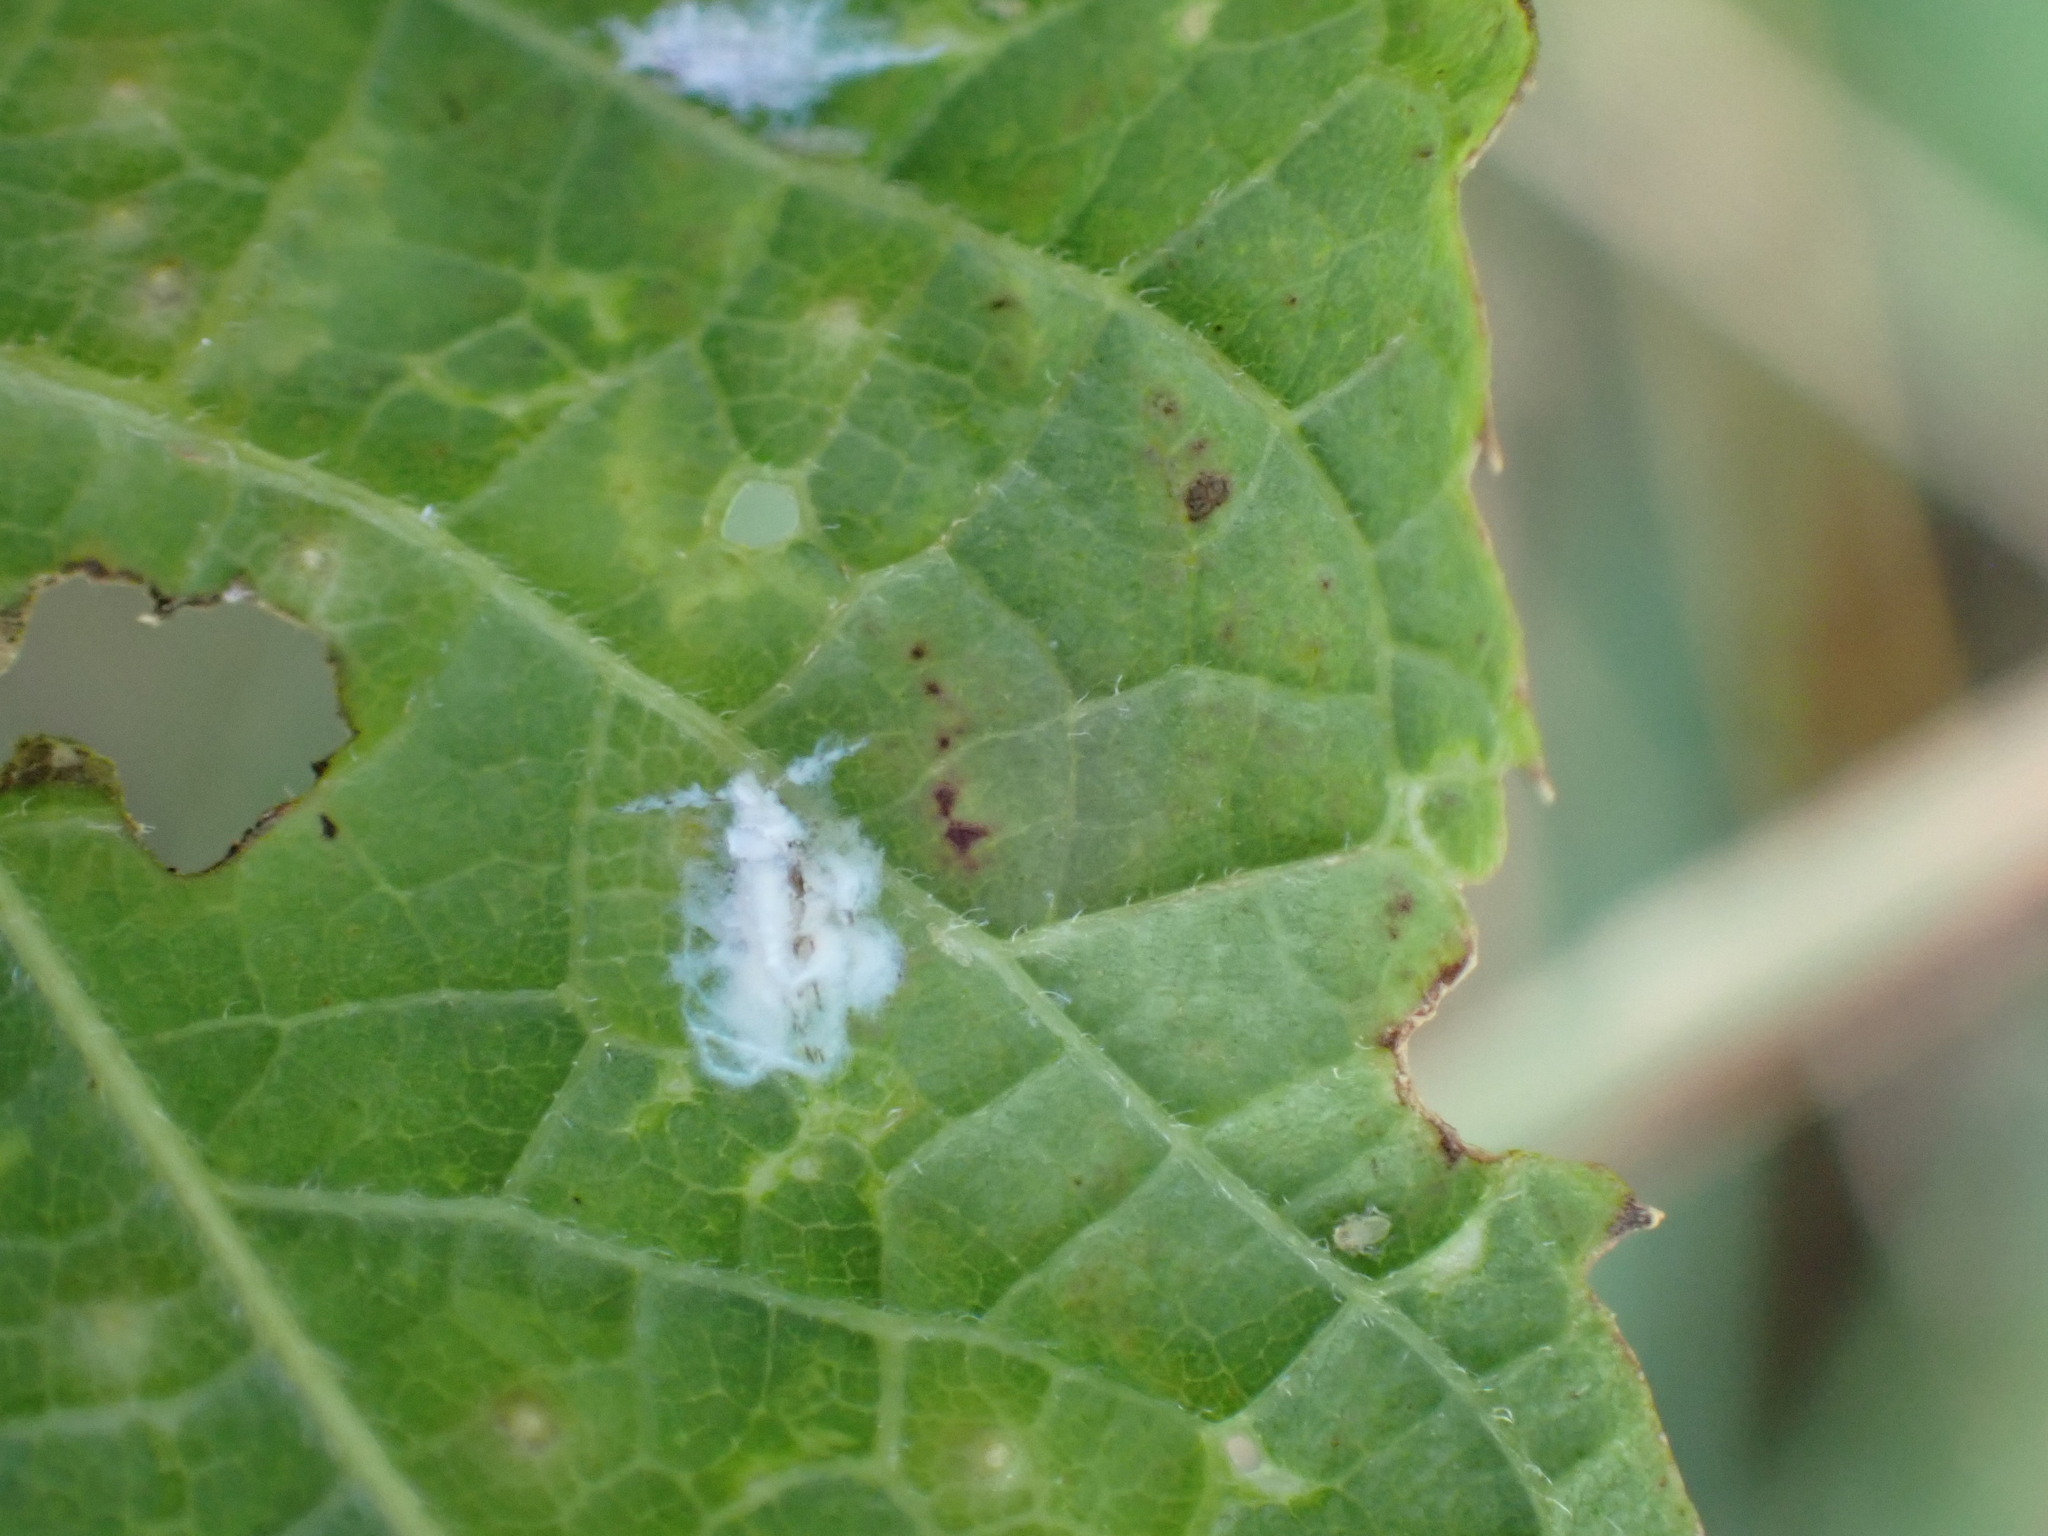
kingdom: Animalia
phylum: Arthropoda
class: Insecta
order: Hemiptera
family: Aphididae
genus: Shivaphis
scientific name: Shivaphis celti
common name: Asian wooly hackberry aphid
